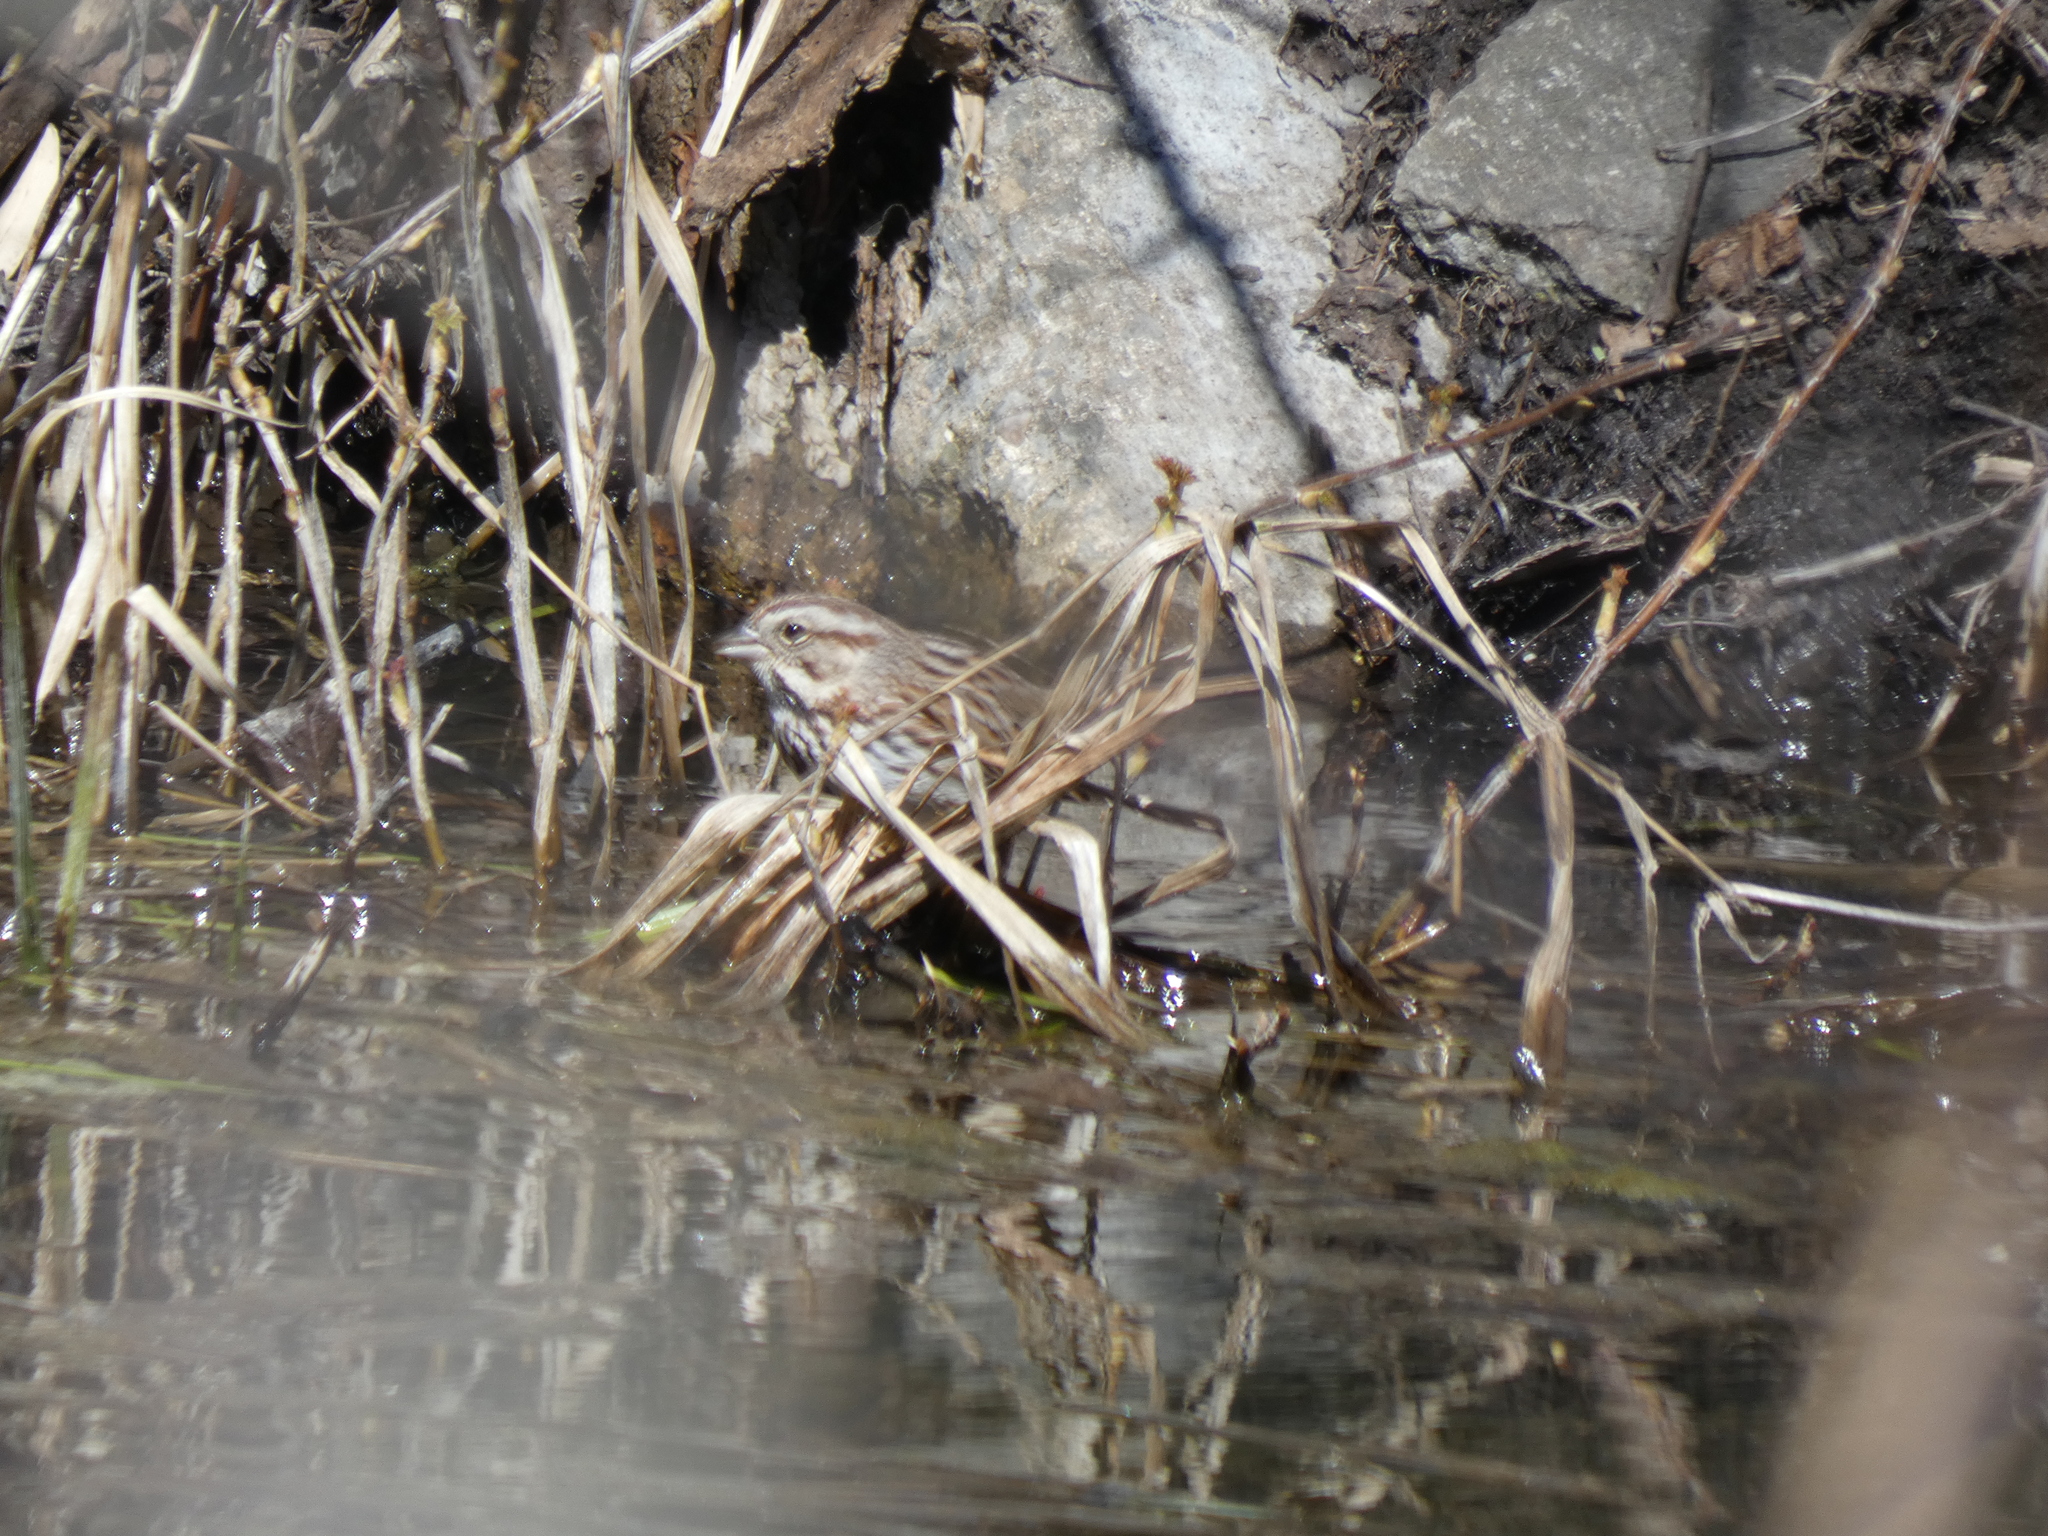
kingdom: Animalia
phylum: Chordata
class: Aves
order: Passeriformes
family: Passerellidae
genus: Melospiza
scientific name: Melospiza melodia
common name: Song sparrow
